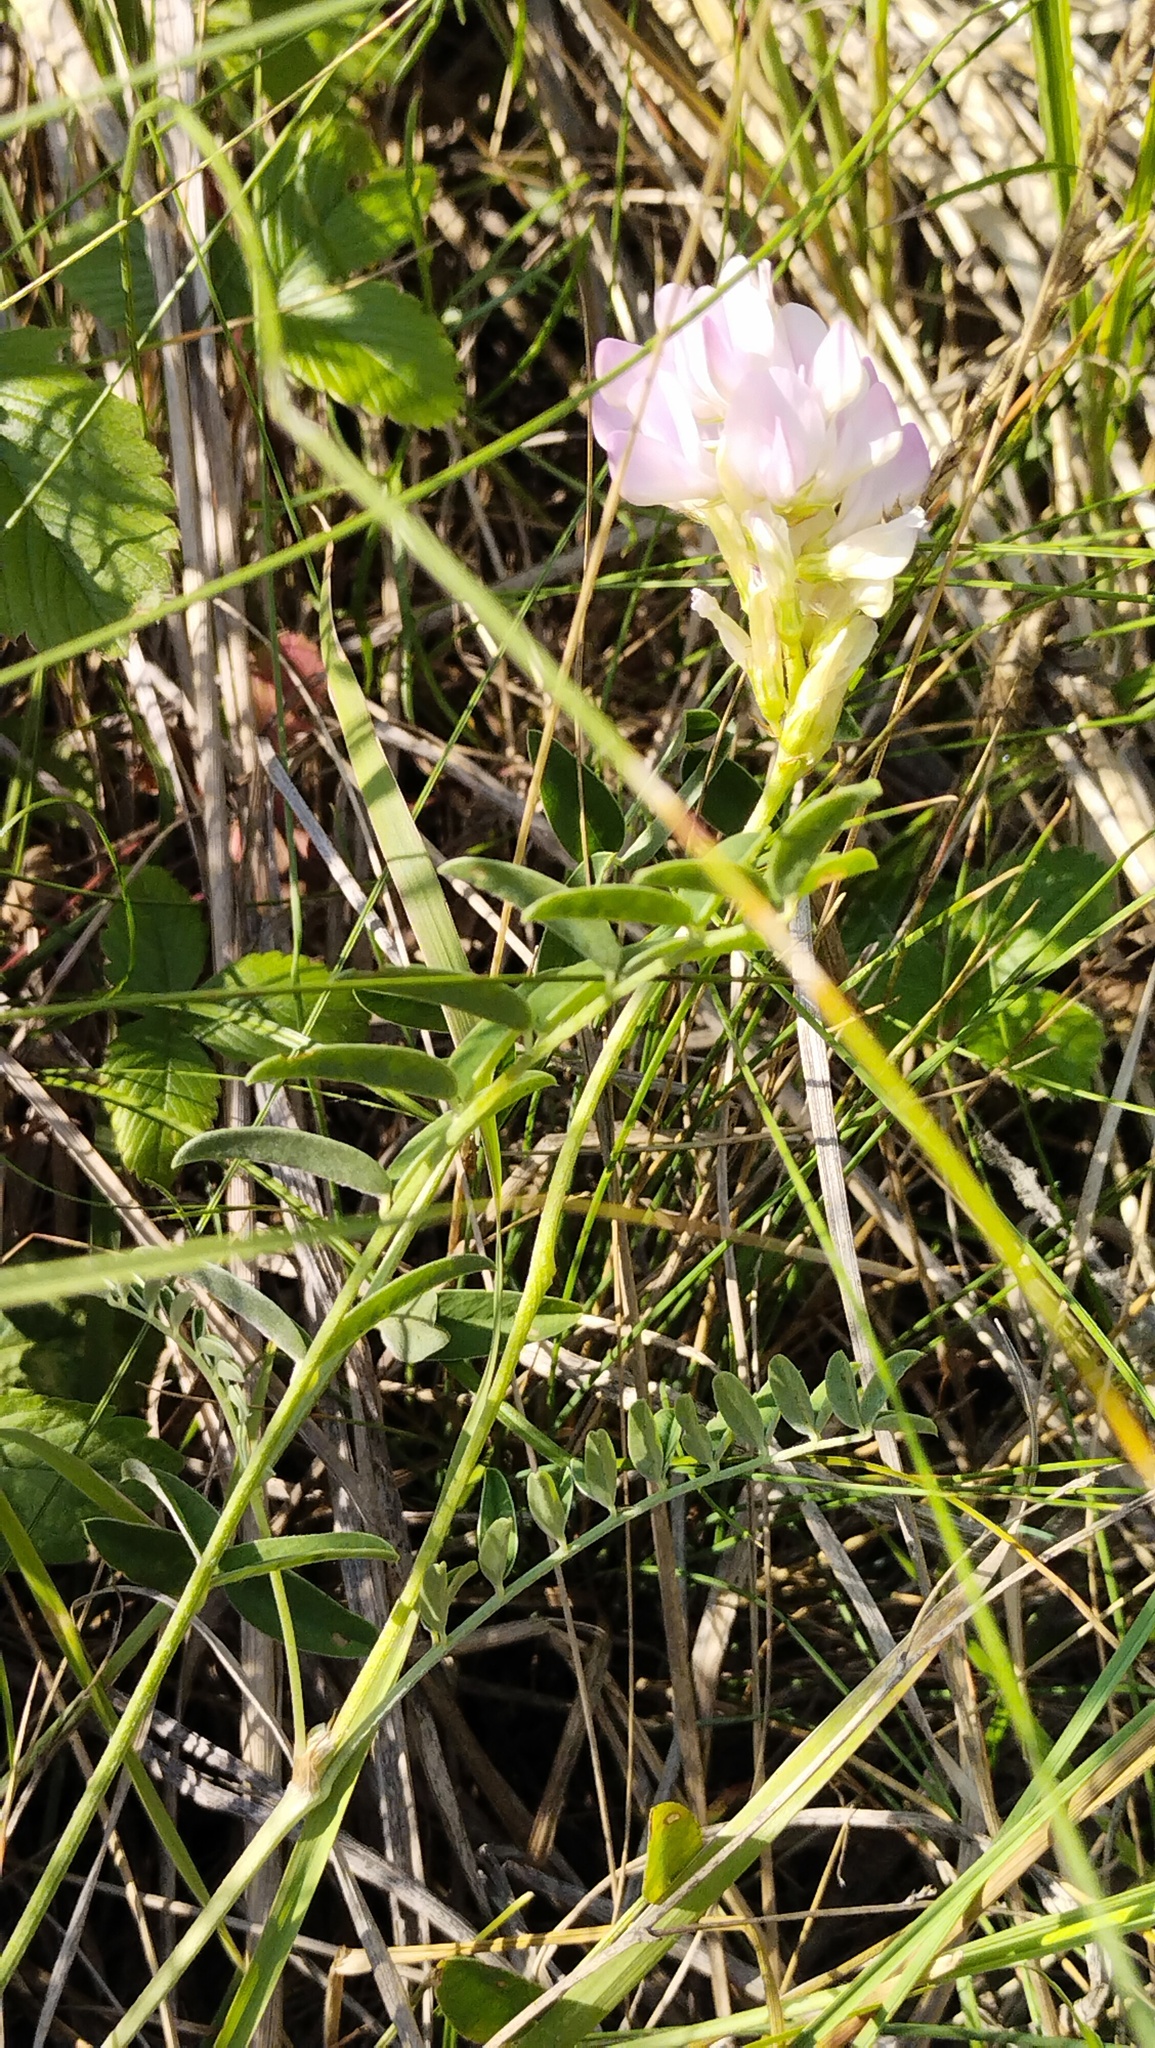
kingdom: Plantae
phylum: Tracheophyta
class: Magnoliopsida
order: Fabales
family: Fabaceae
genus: Astragalus
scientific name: Astragalus laxmannii
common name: Laxmann's milk-vetch
